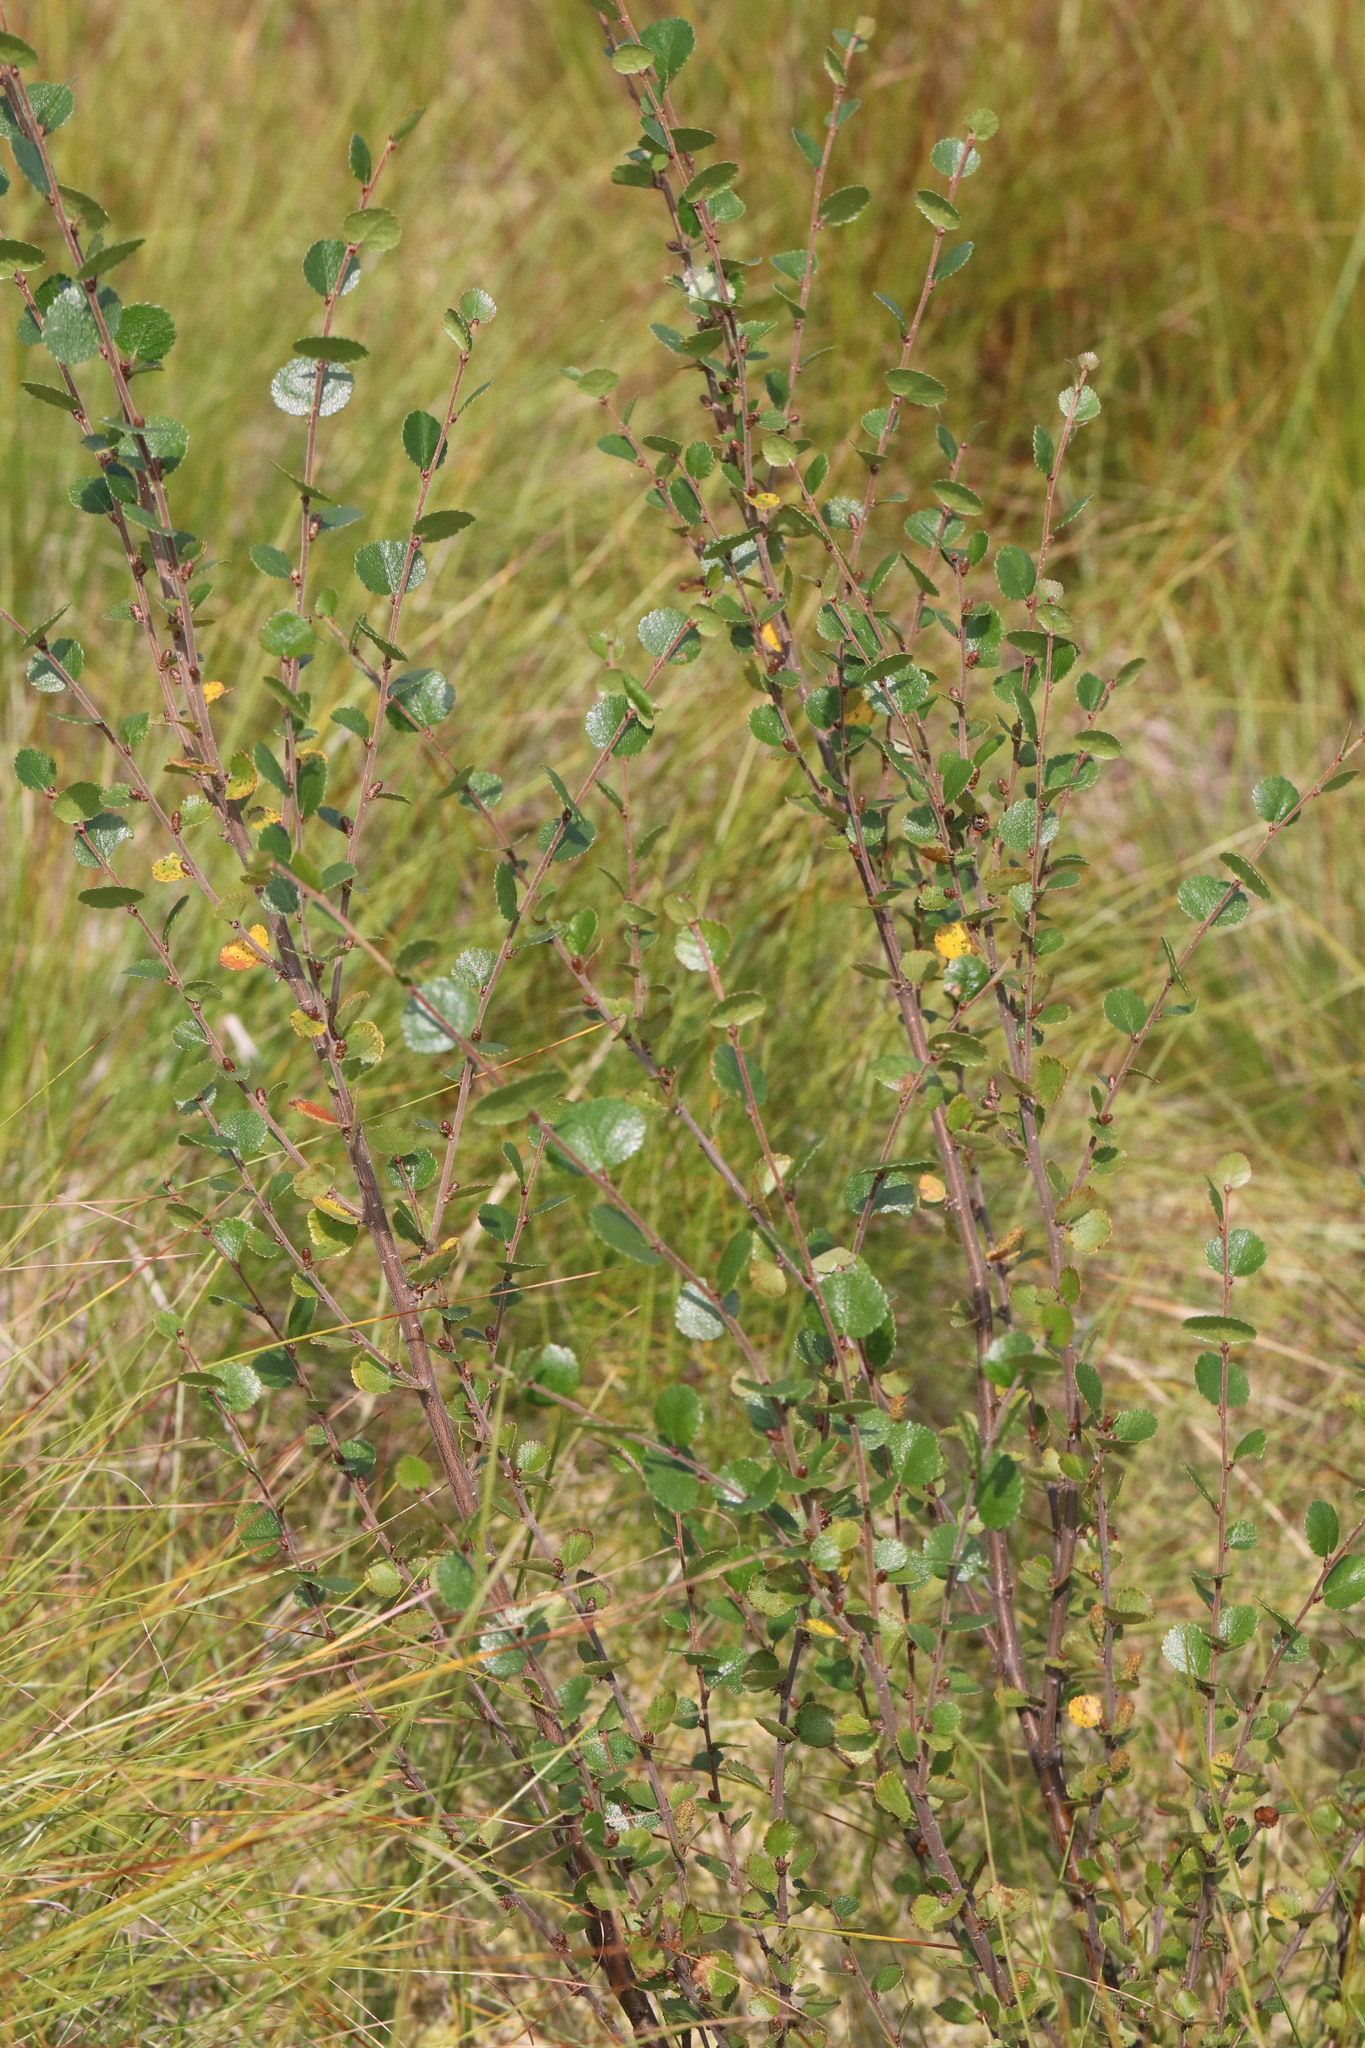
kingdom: Plantae
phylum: Tracheophyta
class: Magnoliopsida
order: Fagales
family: Betulaceae
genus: Betula
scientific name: Betula nana
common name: Arctic dwarf birch
